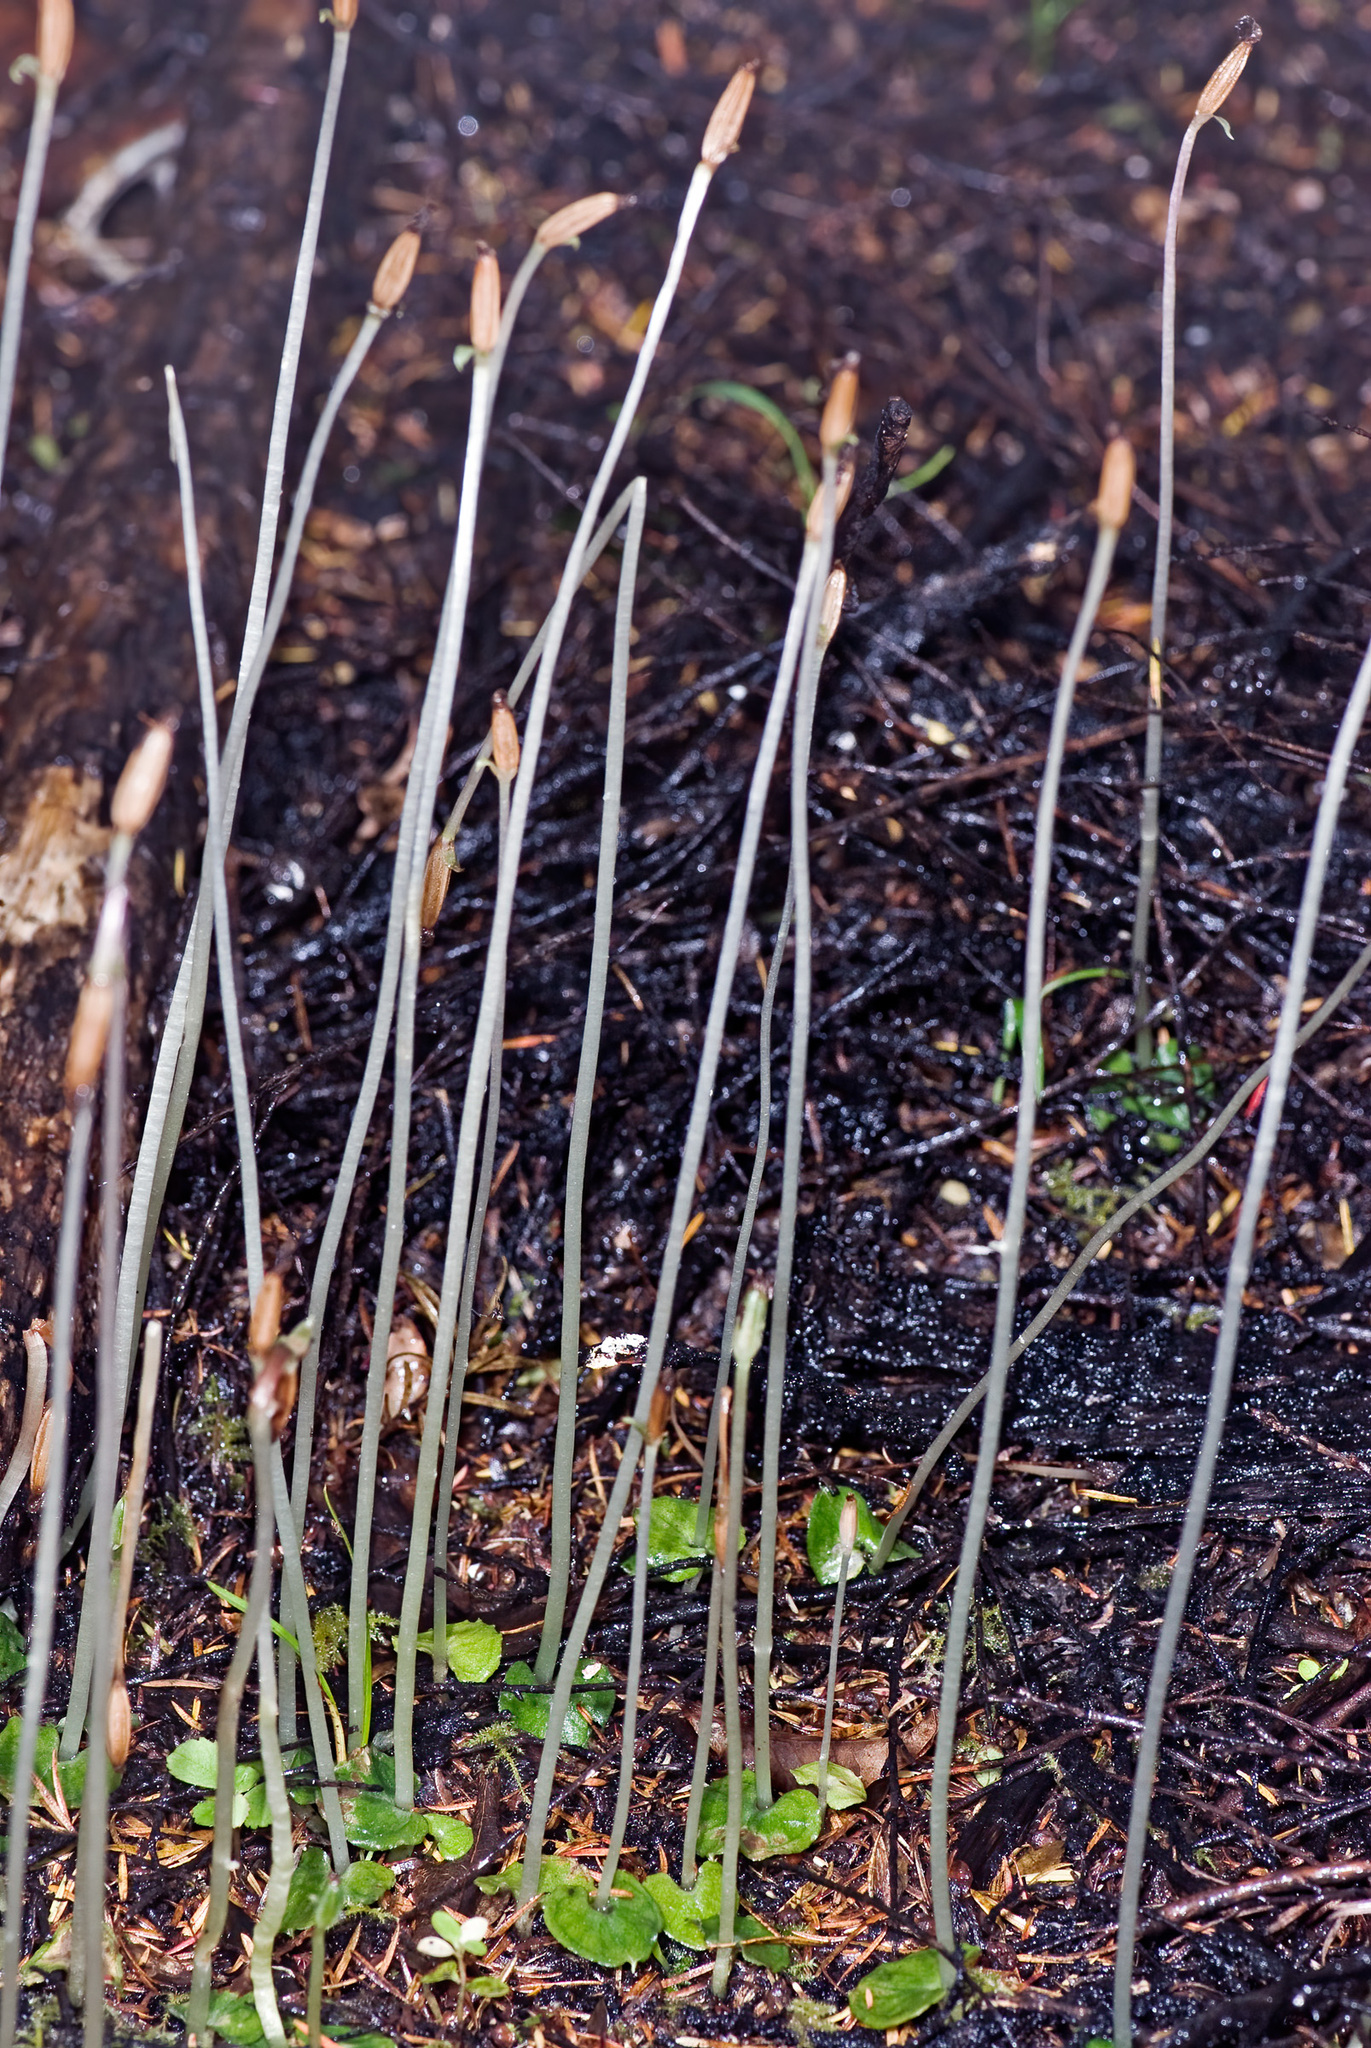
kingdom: Plantae
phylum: Tracheophyta
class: Liliopsida
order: Asparagales
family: Orchidaceae
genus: Corybas
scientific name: Corybas cheesemanii
